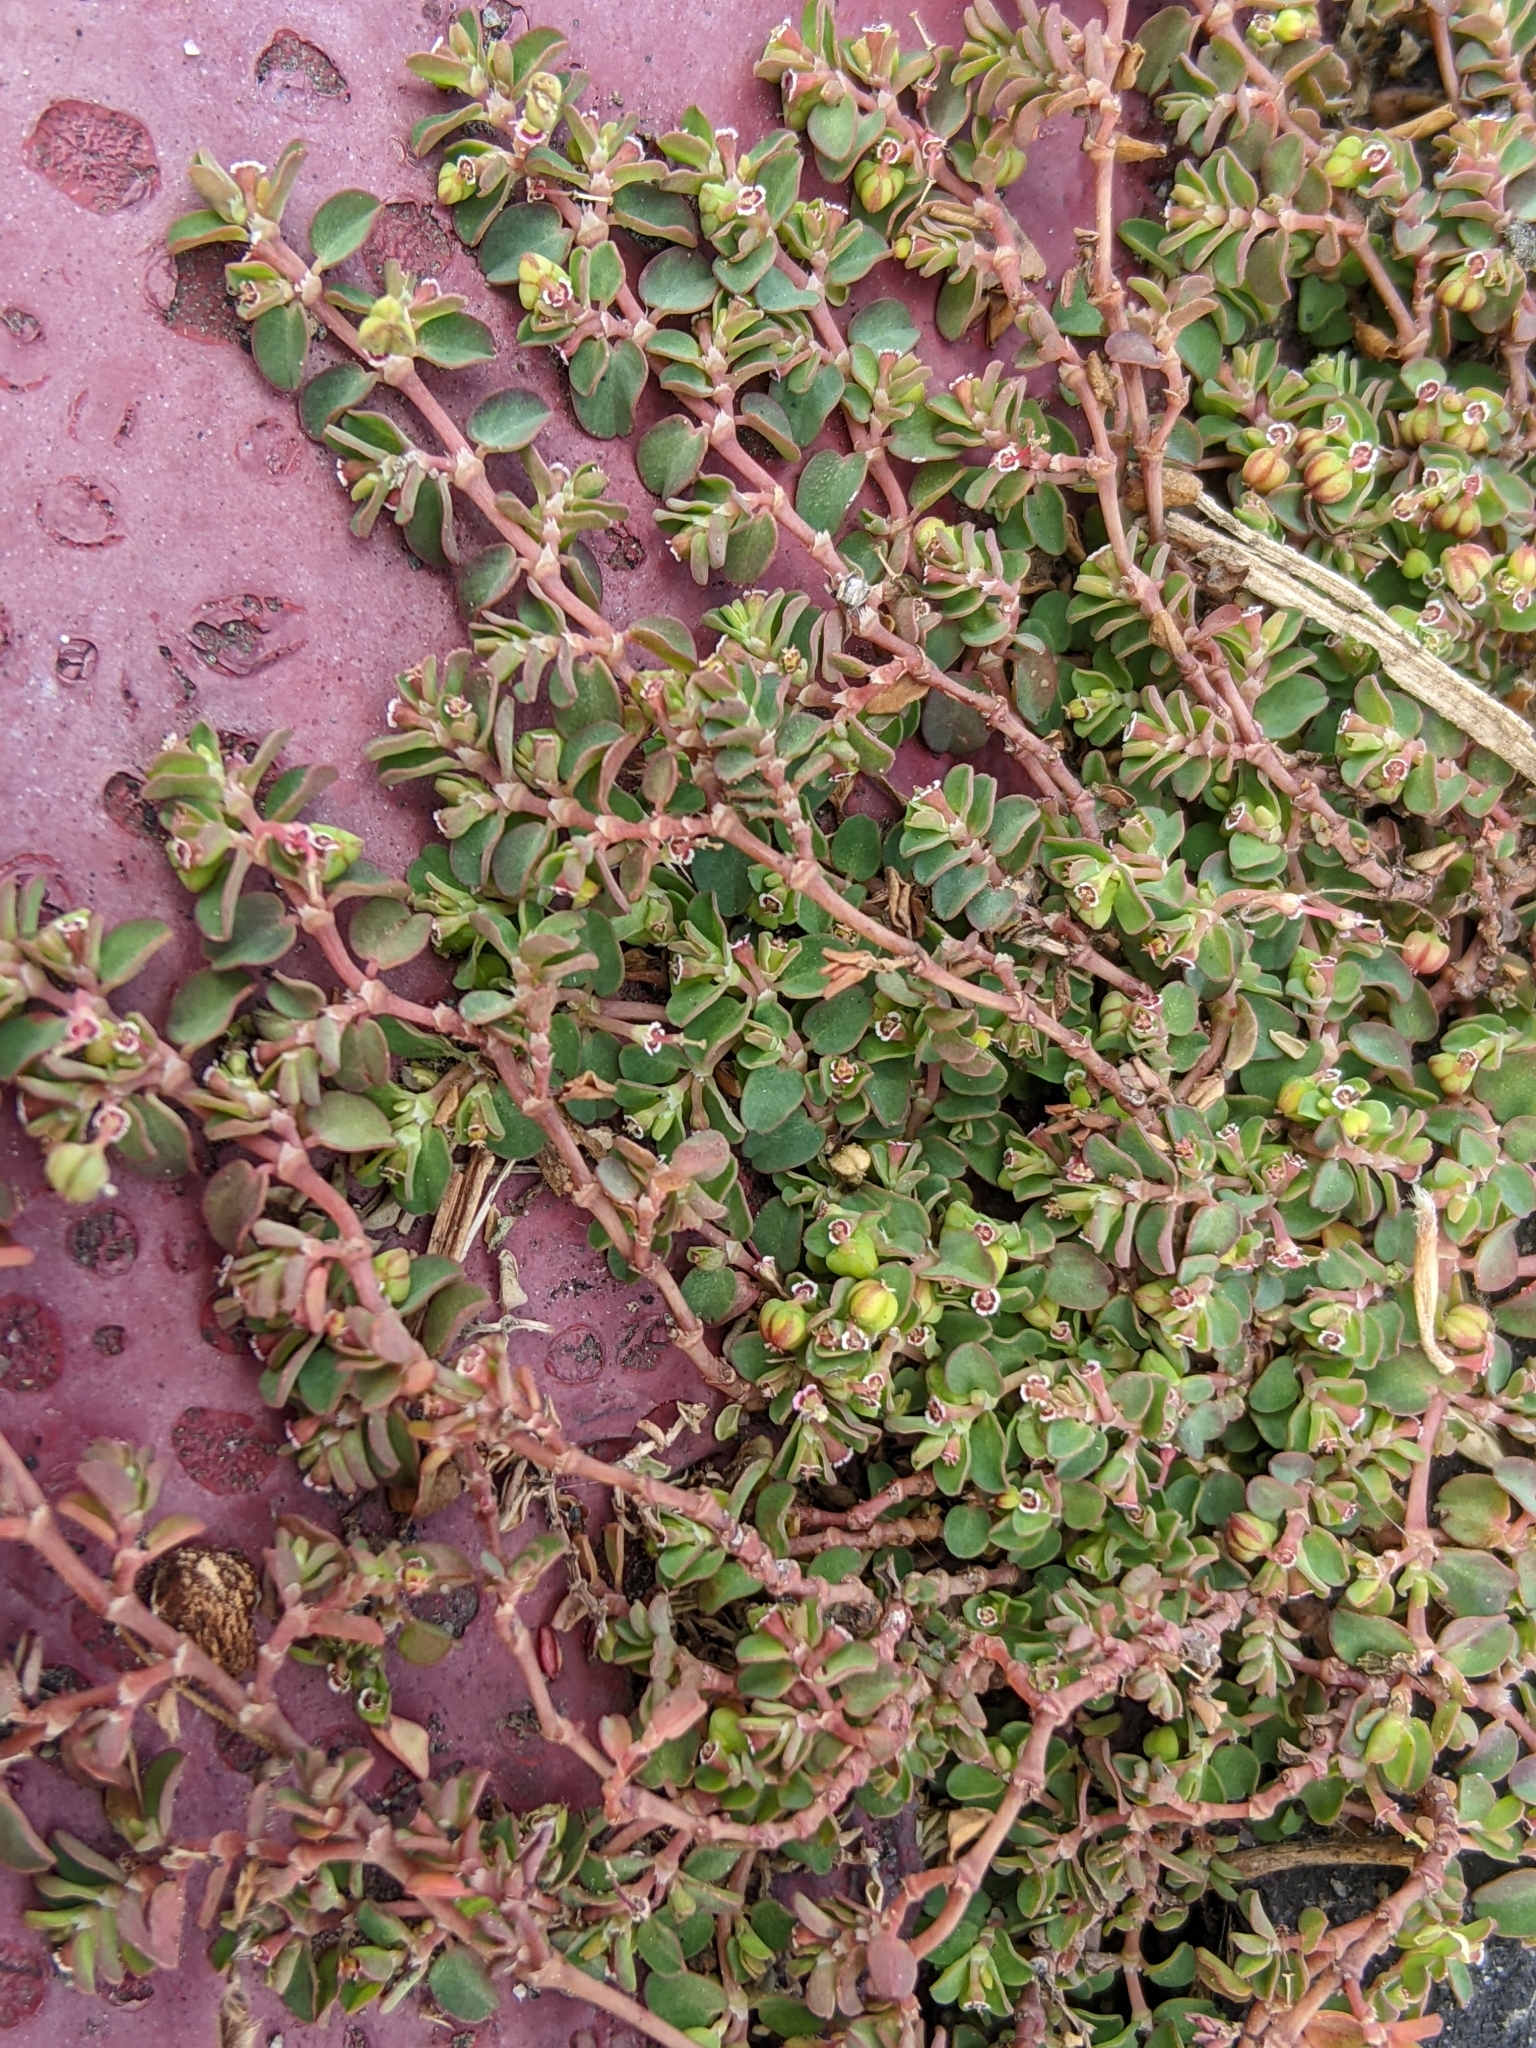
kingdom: Plantae
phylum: Tracheophyta
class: Magnoliopsida
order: Malpighiales
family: Euphorbiaceae
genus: Euphorbia
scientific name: Euphorbia serpens
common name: Matted sandmat
